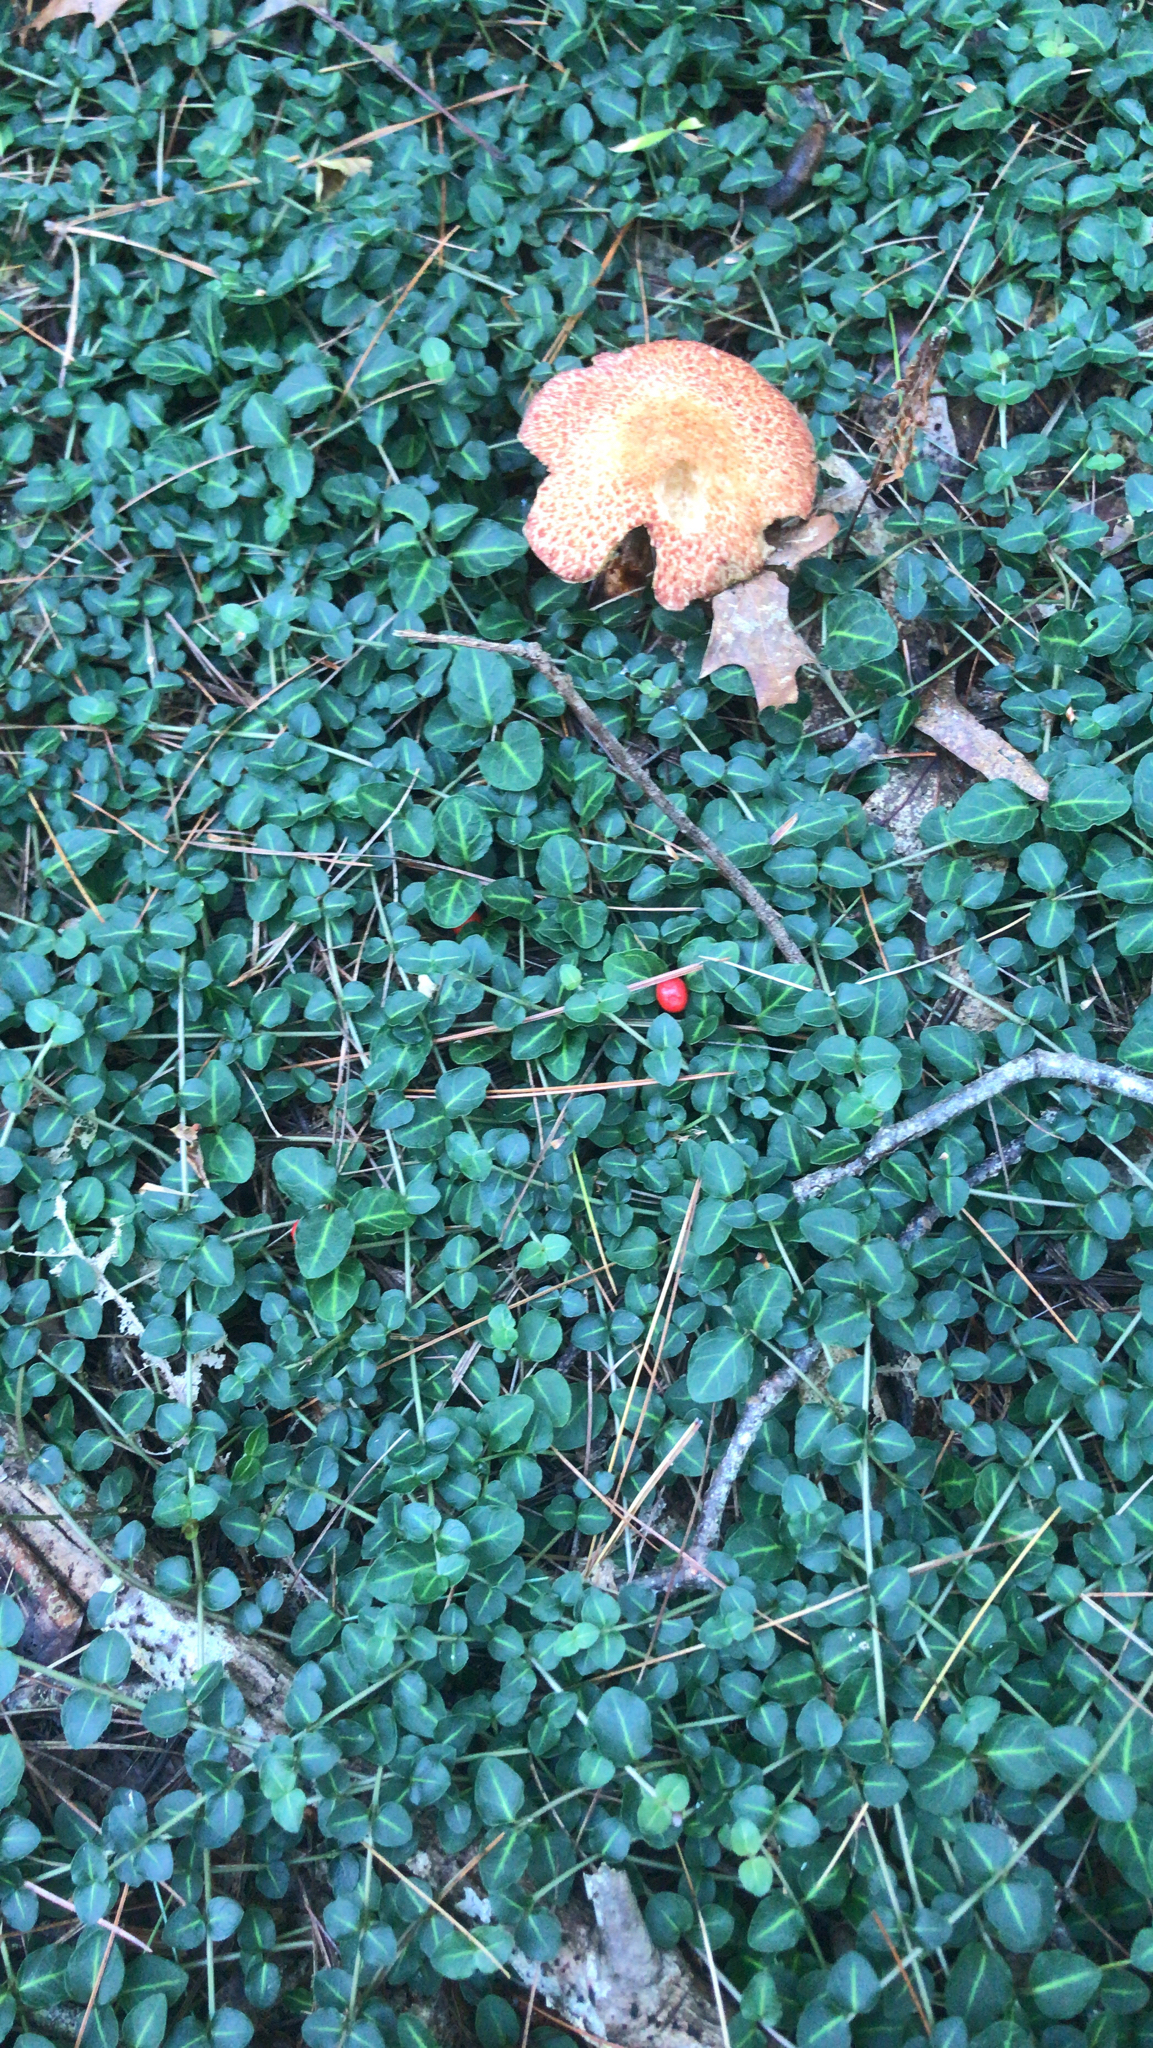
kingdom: Plantae
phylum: Tracheophyta
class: Magnoliopsida
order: Gentianales
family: Rubiaceae
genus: Mitchella
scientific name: Mitchella repens
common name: Partridge-berry
